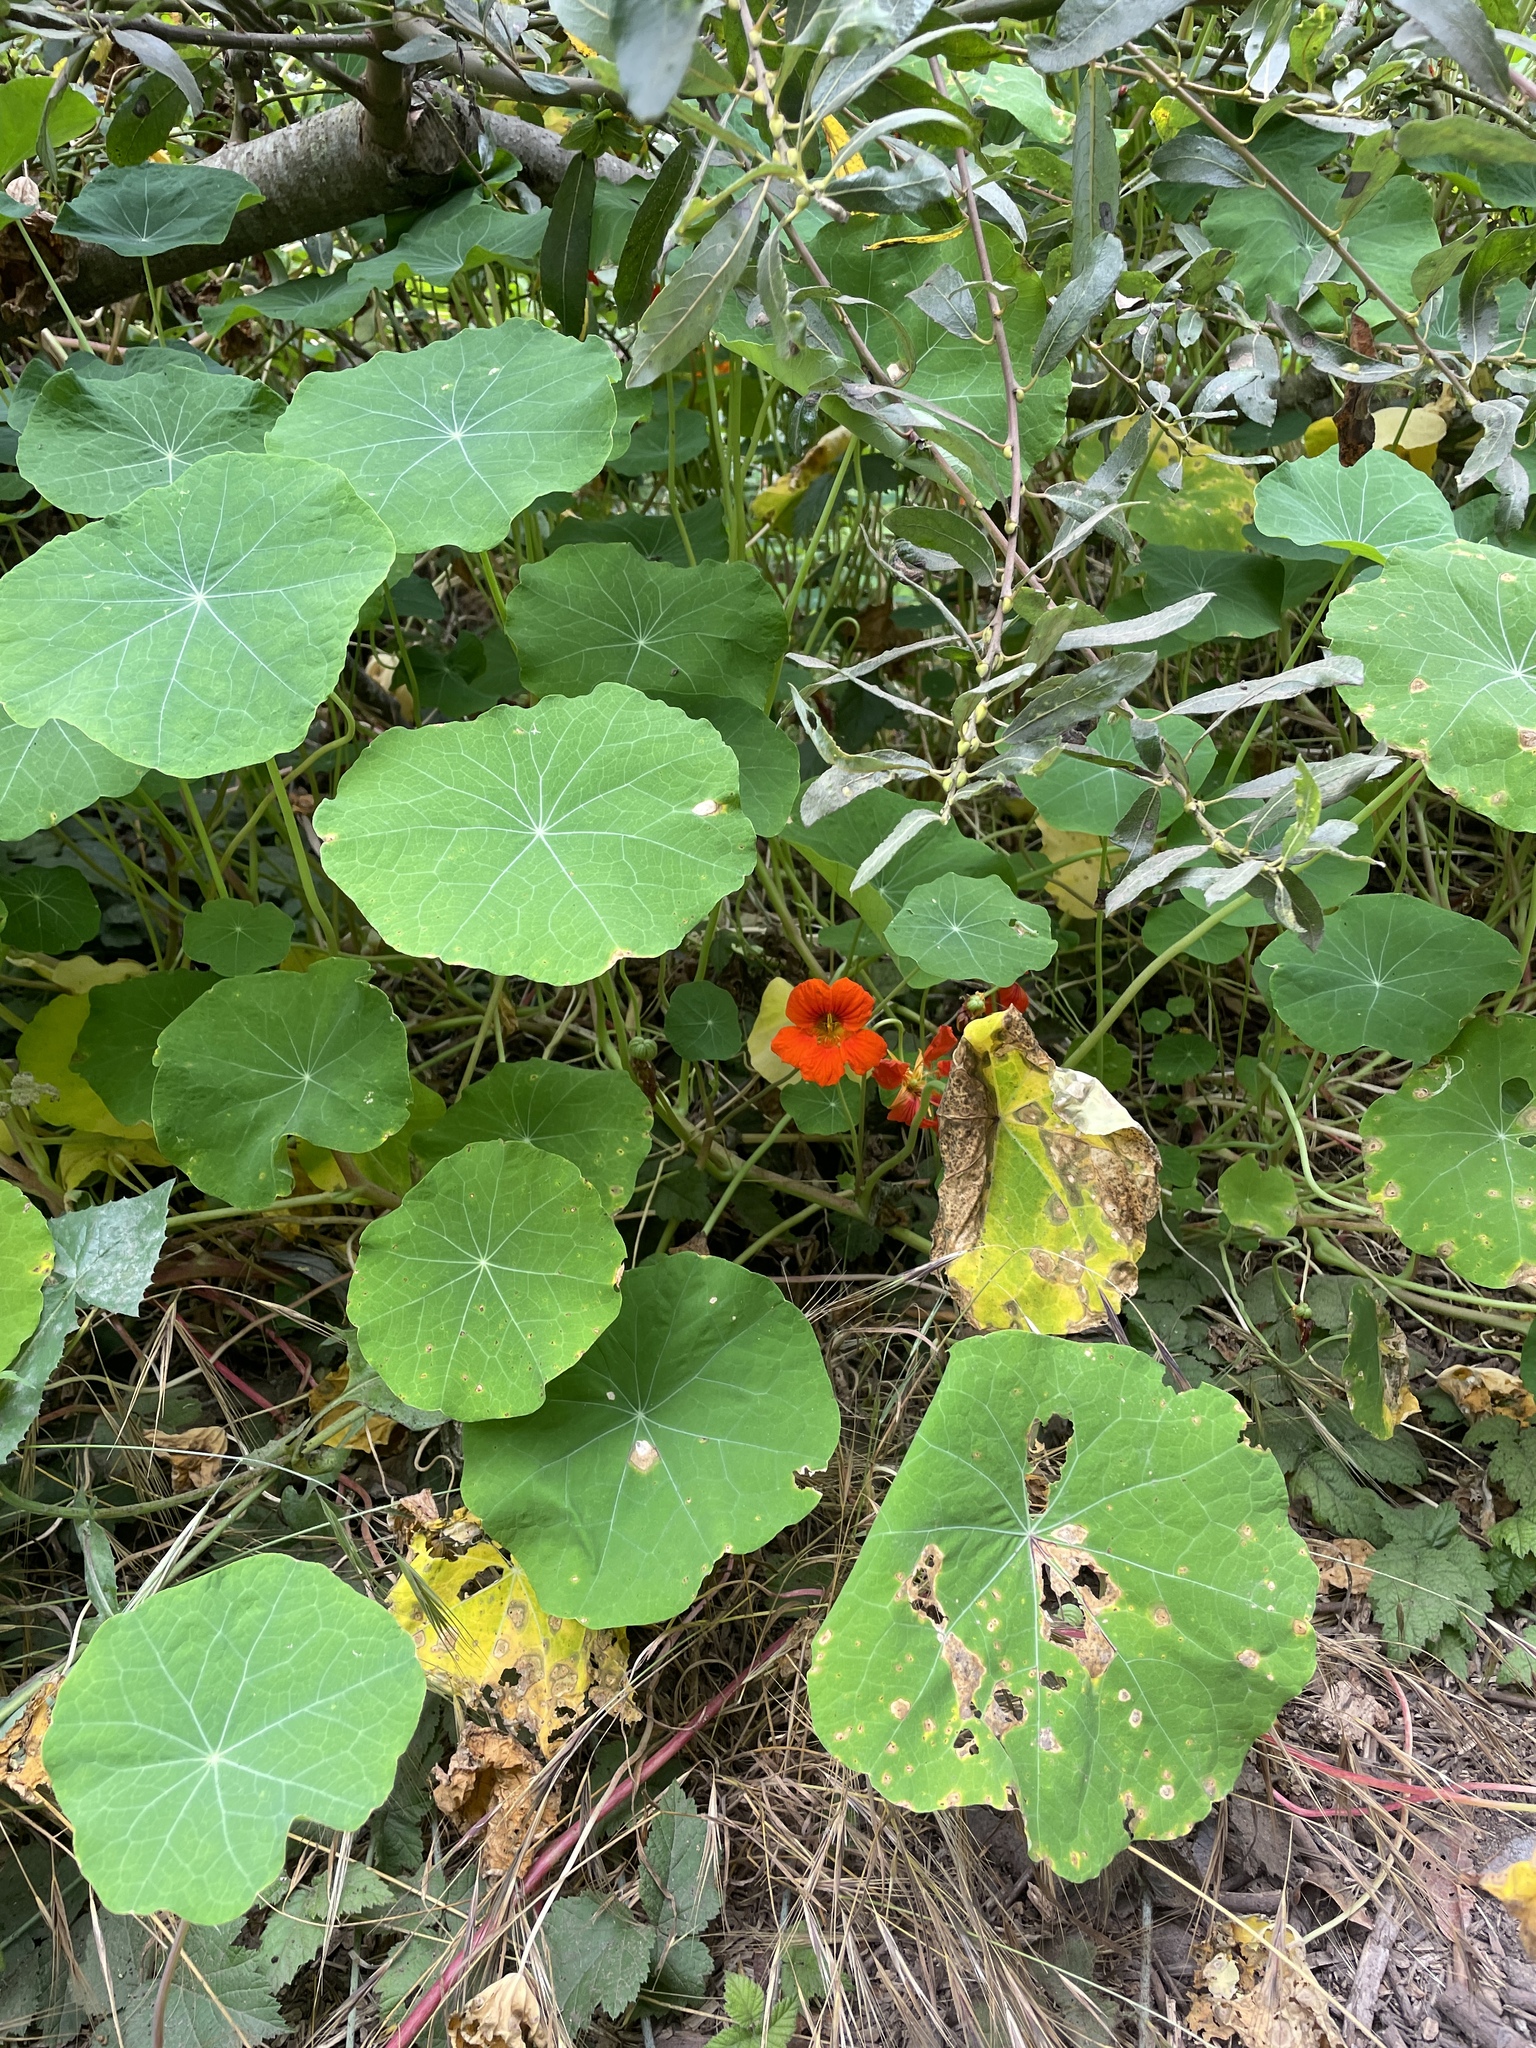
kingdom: Plantae
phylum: Tracheophyta
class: Magnoliopsida
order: Brassicales
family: Tropaeolaceae
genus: Tropaeolum
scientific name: Tropaeolum majus
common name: Nasturtium
